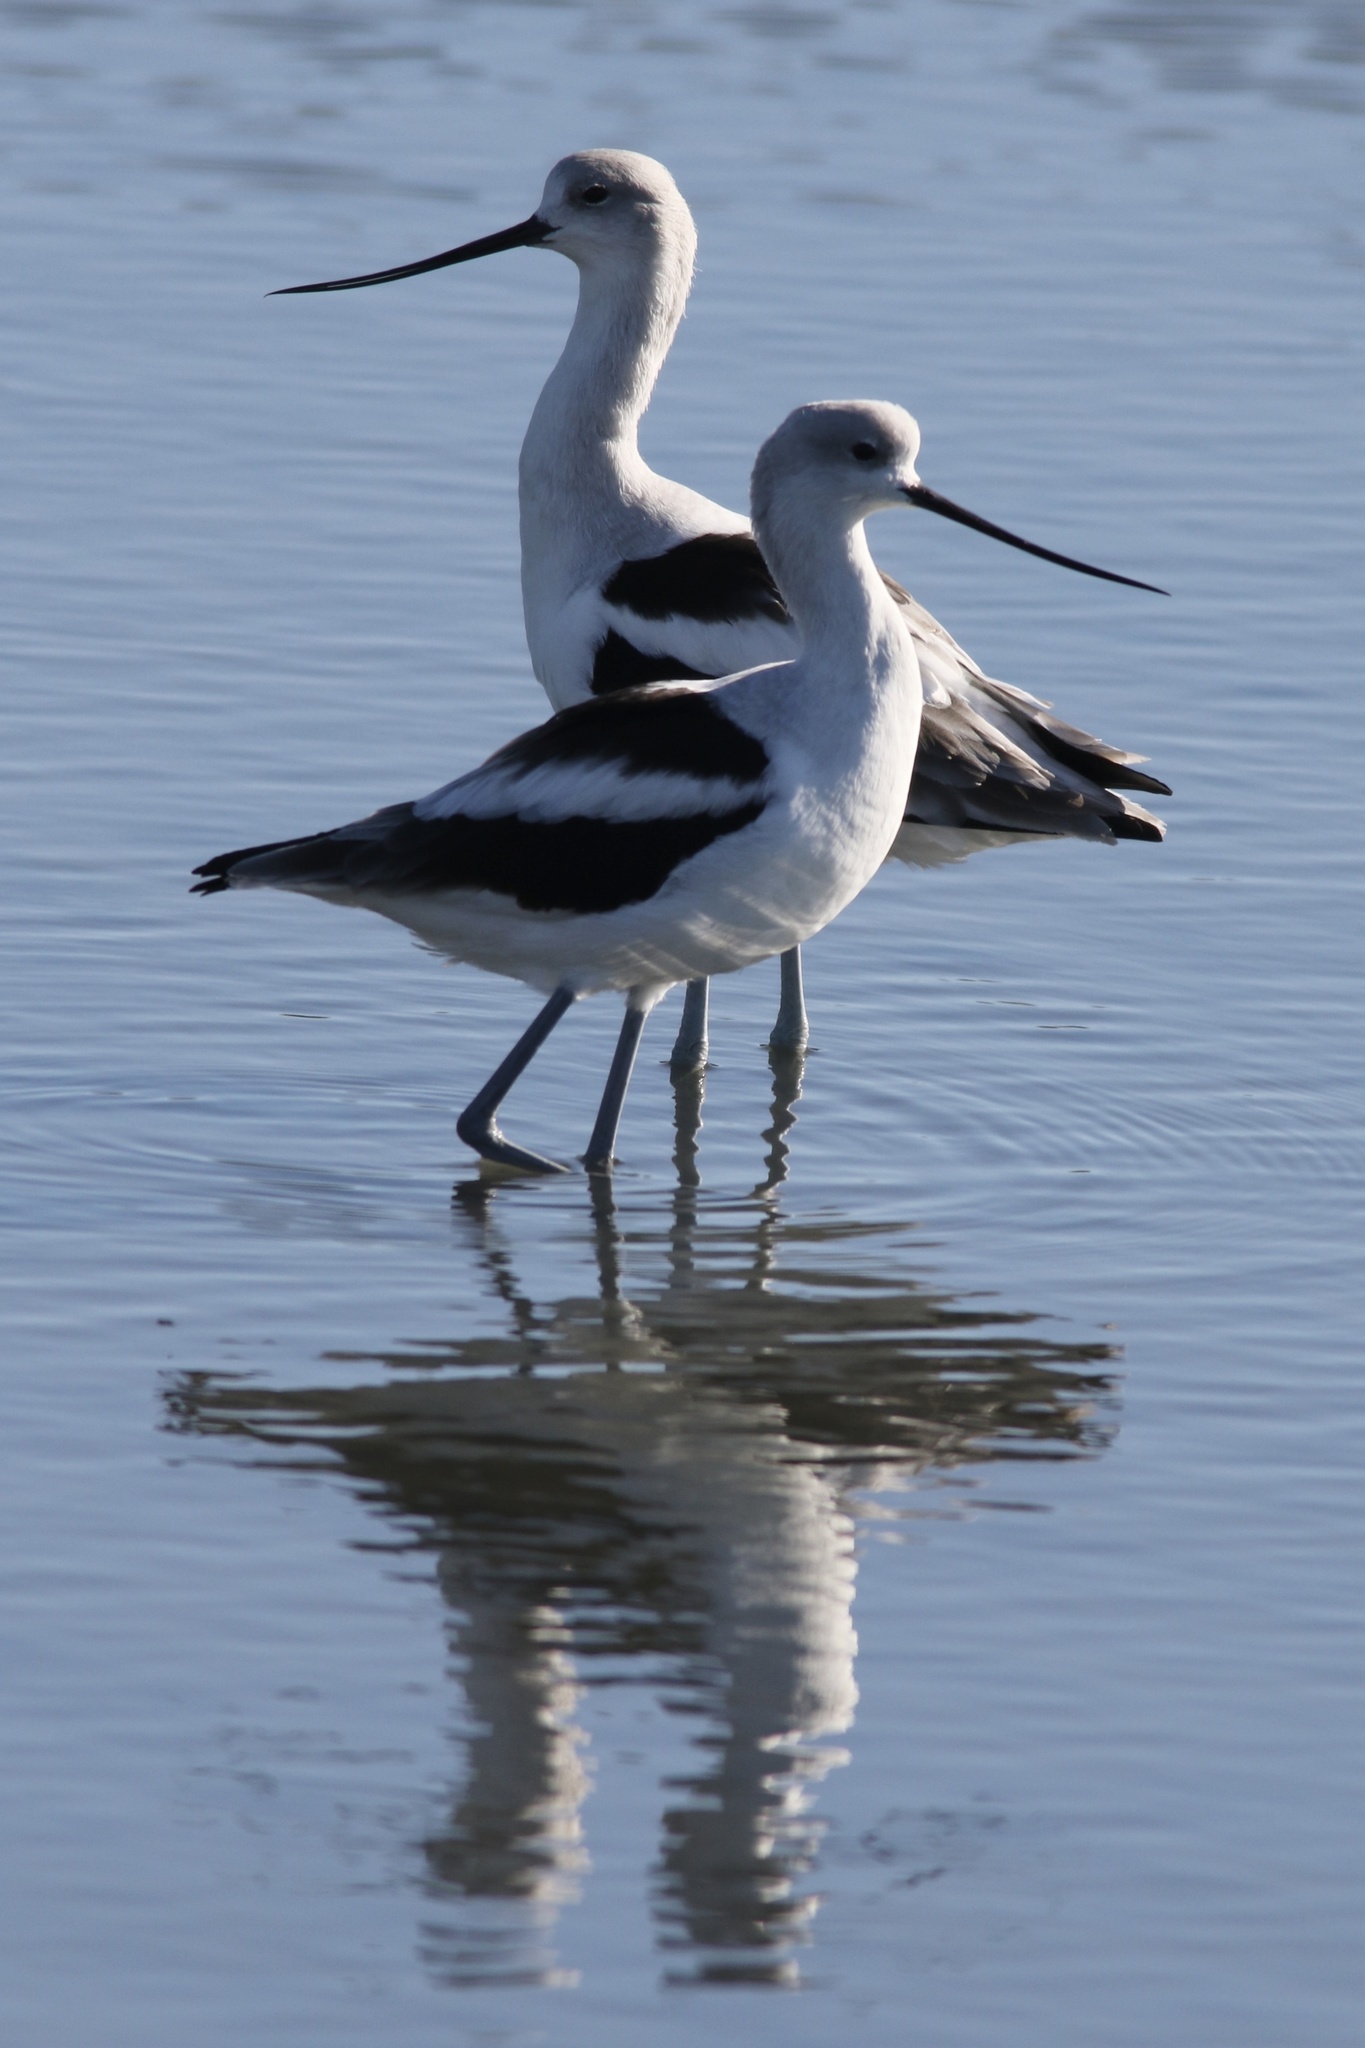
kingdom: Animalia
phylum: Chordata
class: Aves
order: Charadriiformes
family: Recurvirostridae
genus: Recurvirostra
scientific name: Recurvirostra americana
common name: American avocet
